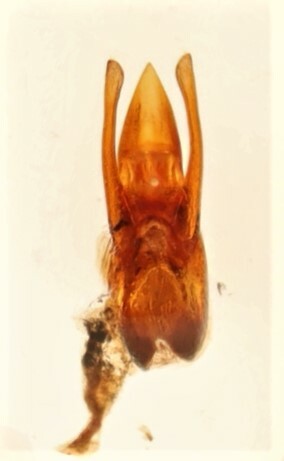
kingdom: Animalia
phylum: Arthropoda
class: Insecta
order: Coleoptera
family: Staphylinidae
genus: Stenus
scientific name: Stenus morio
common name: Rove beetle
